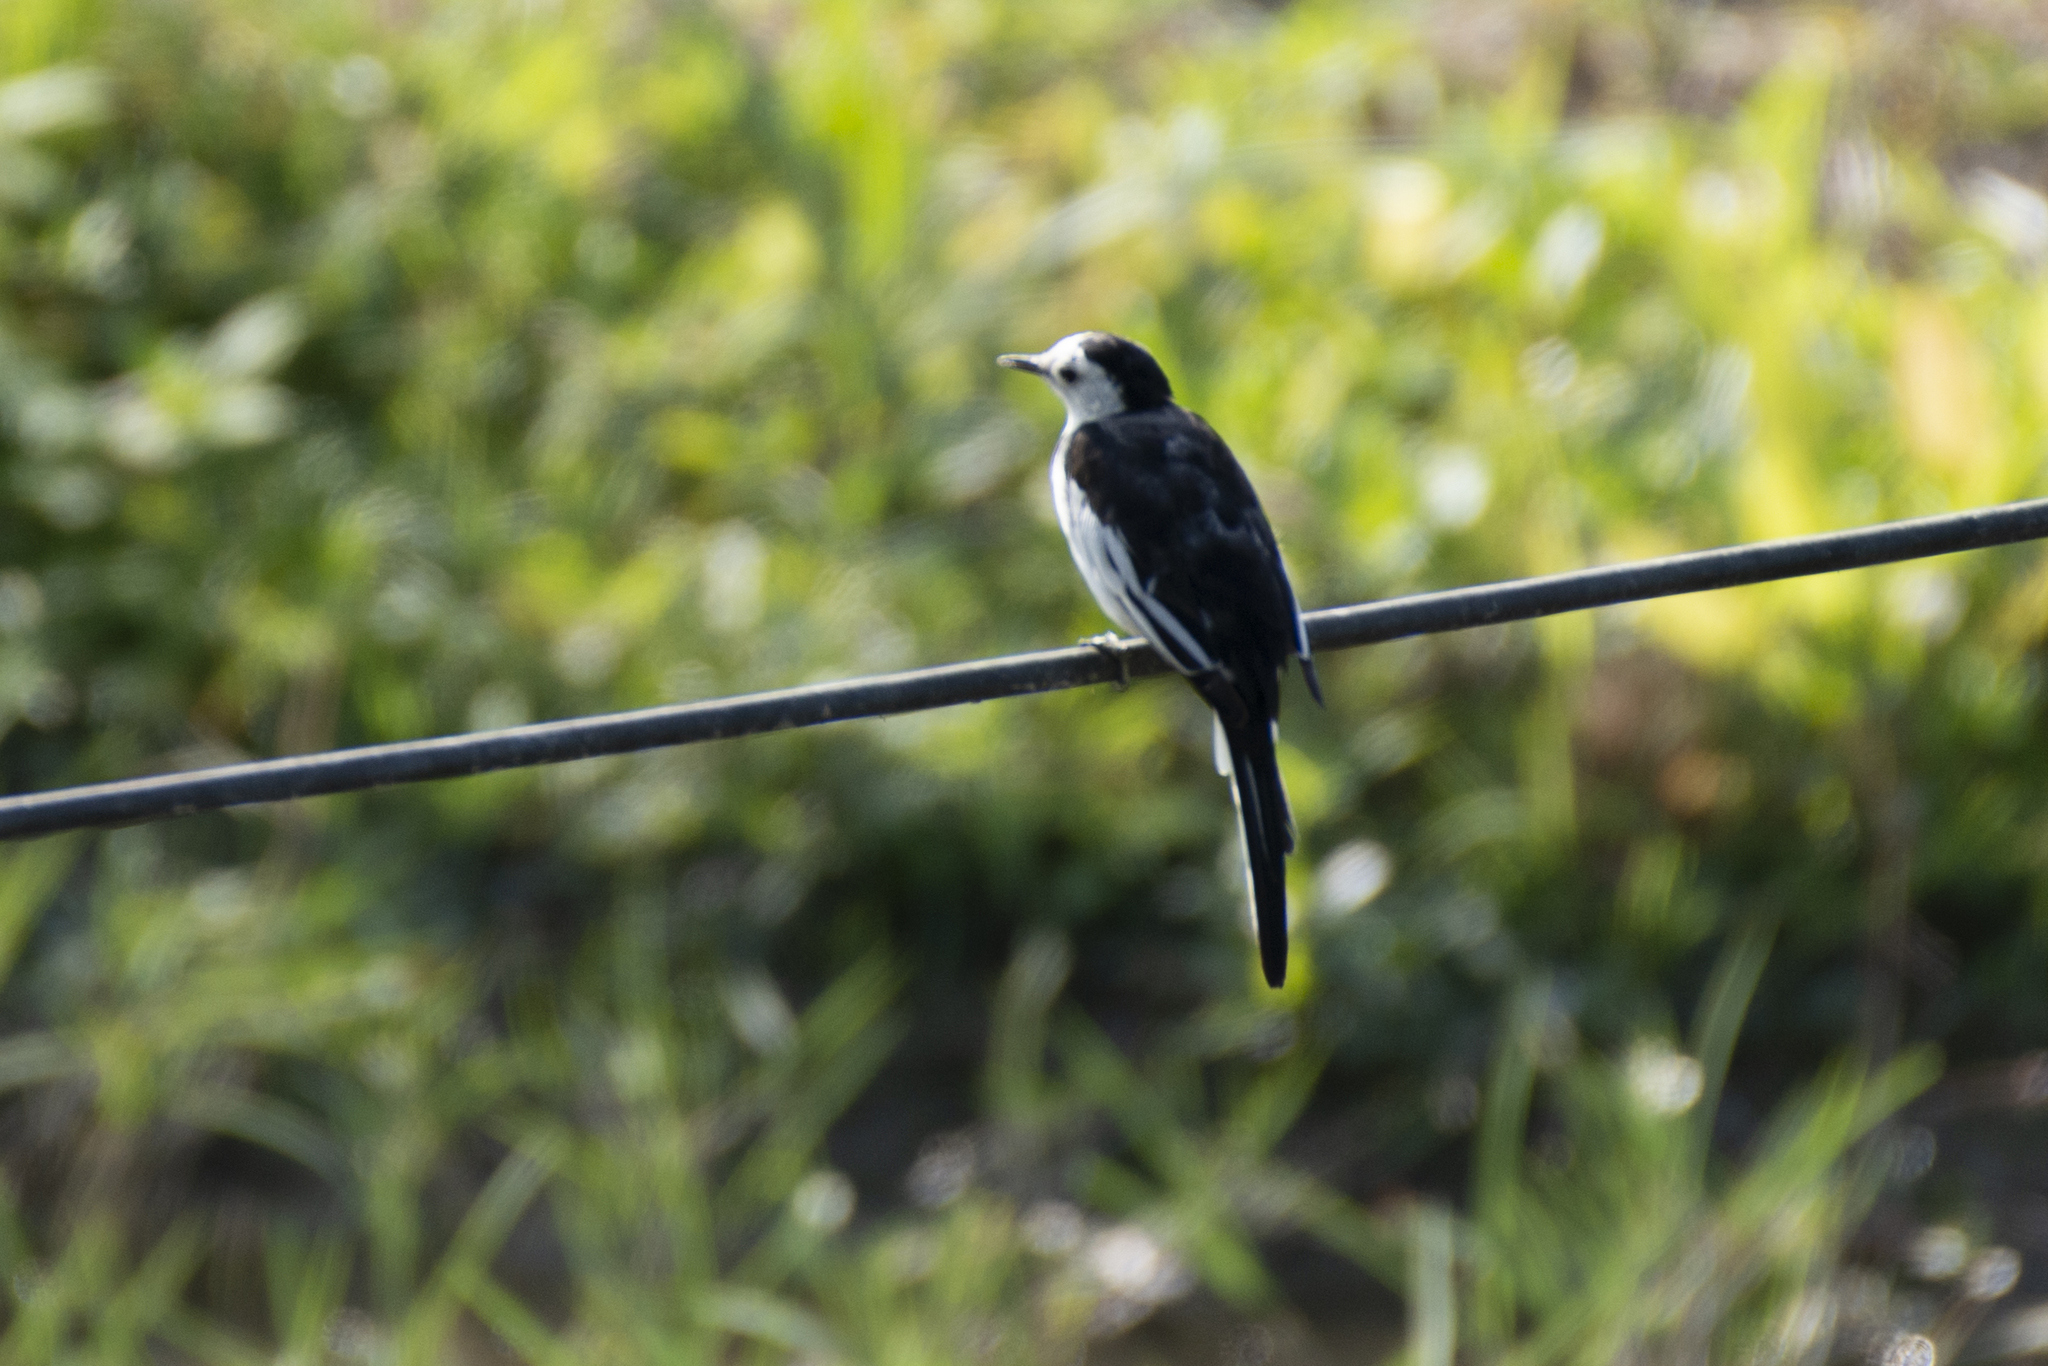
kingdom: Animalia
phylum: Chordata
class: Aves
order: Passeriformes
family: Motacillidae
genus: Motacilla
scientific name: Motacilla alba
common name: White wagtail
